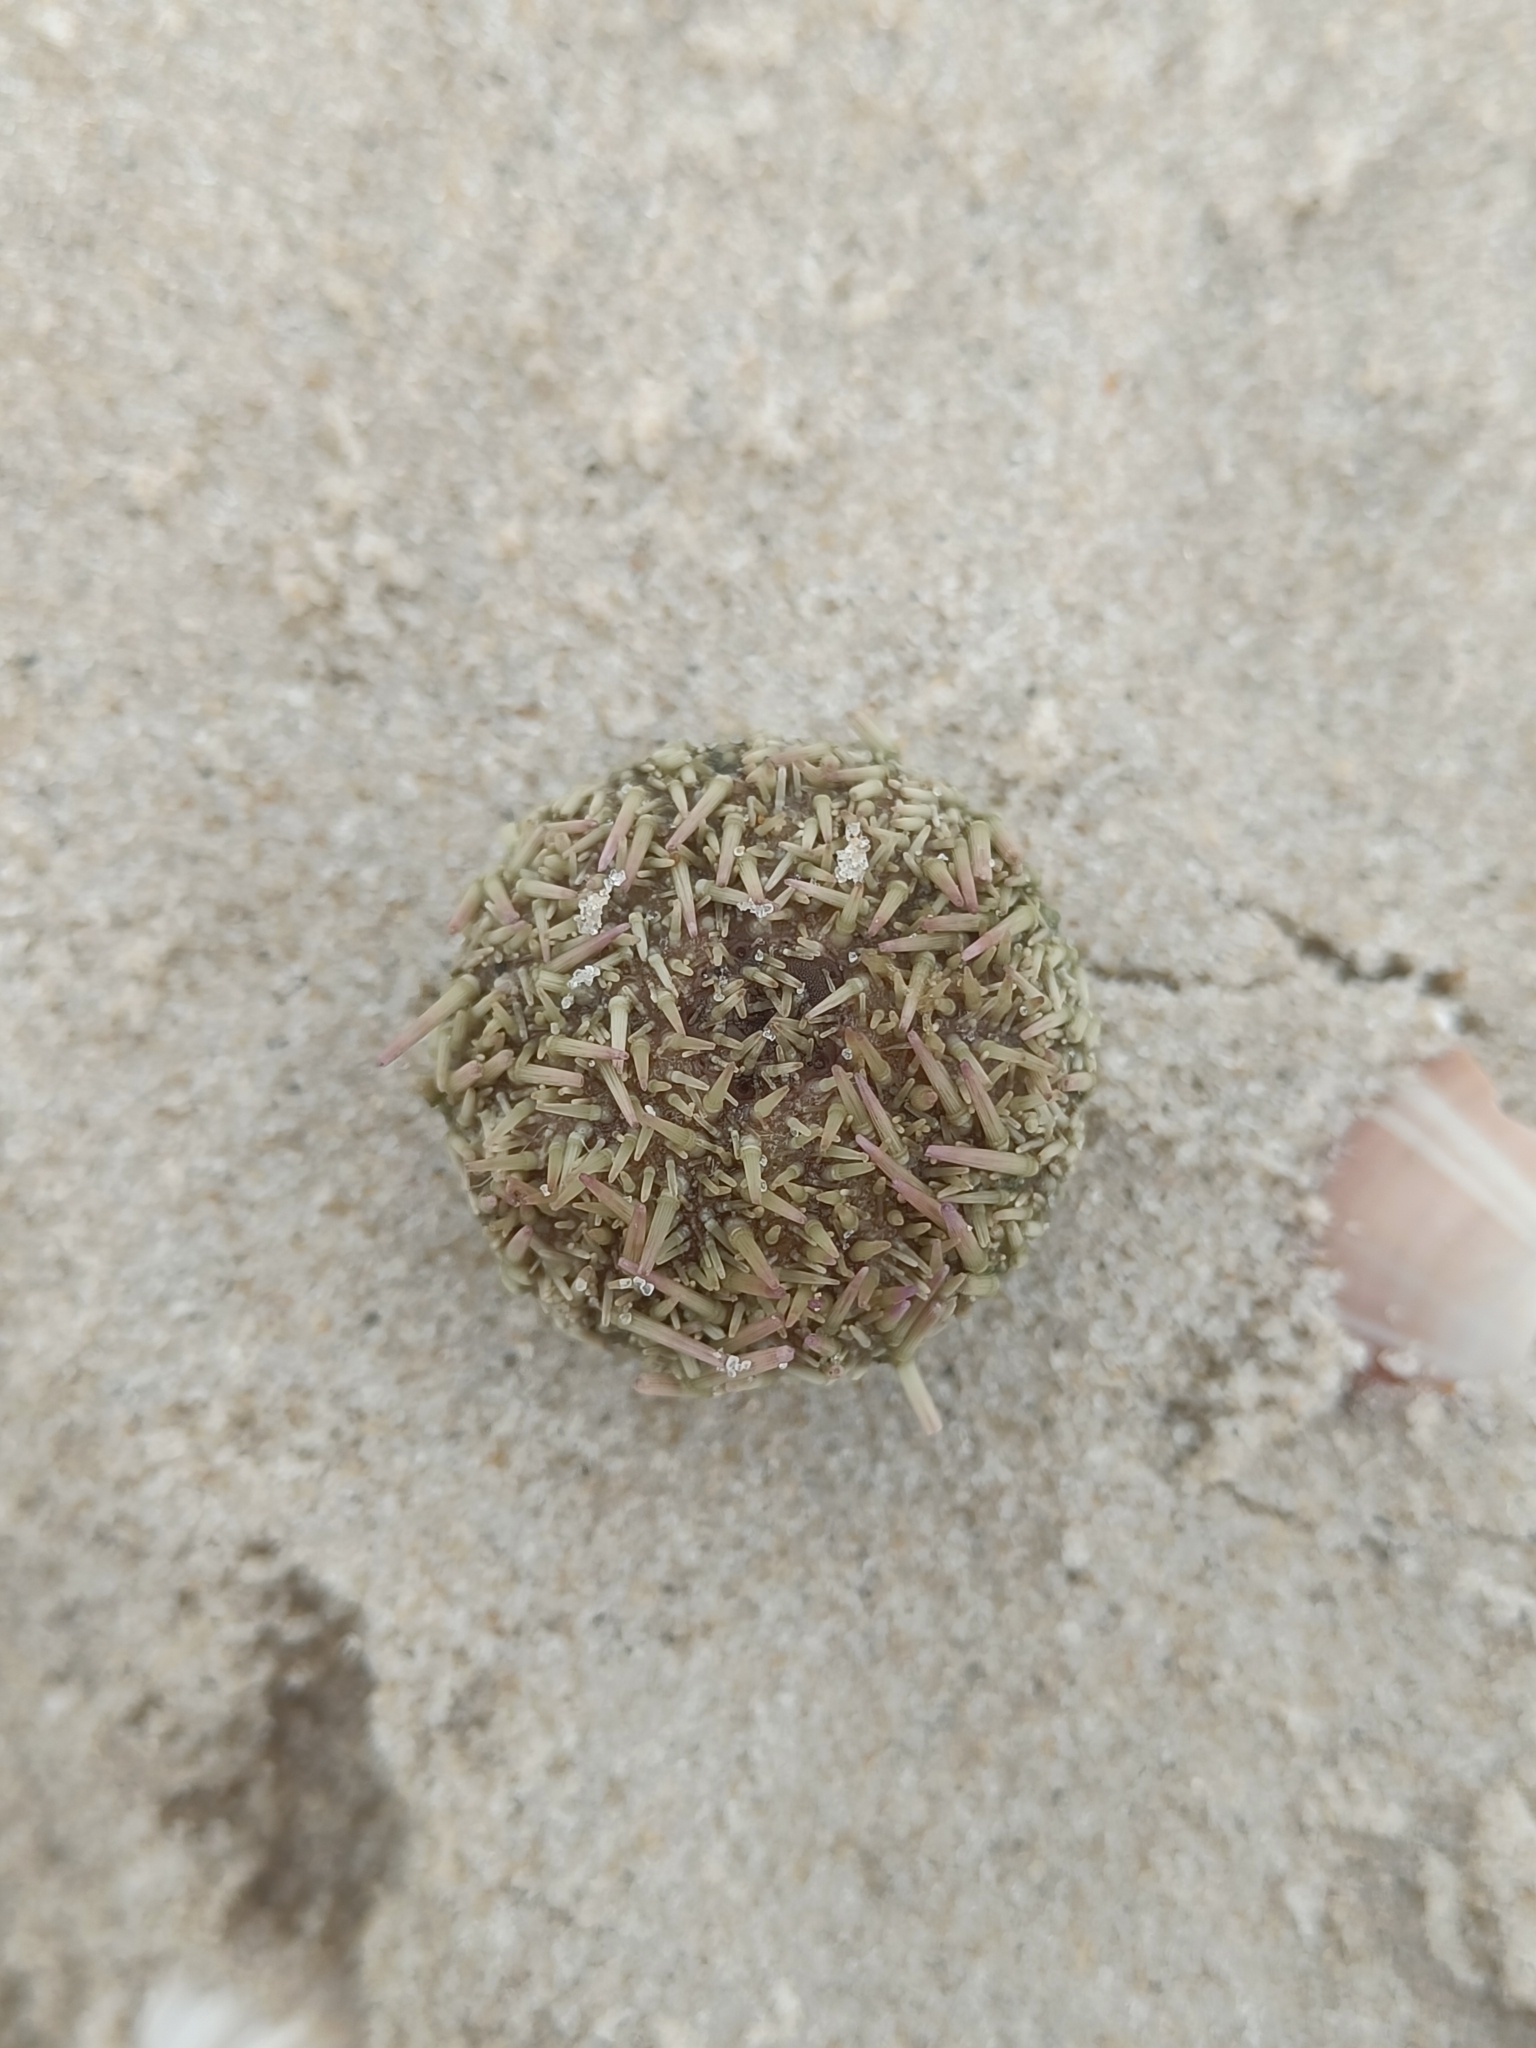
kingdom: Animalia
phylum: Echinodermata
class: Echinoidea
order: Camarodonta
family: Parechinidae
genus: Psammechinus
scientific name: Psammechinus miliaris
